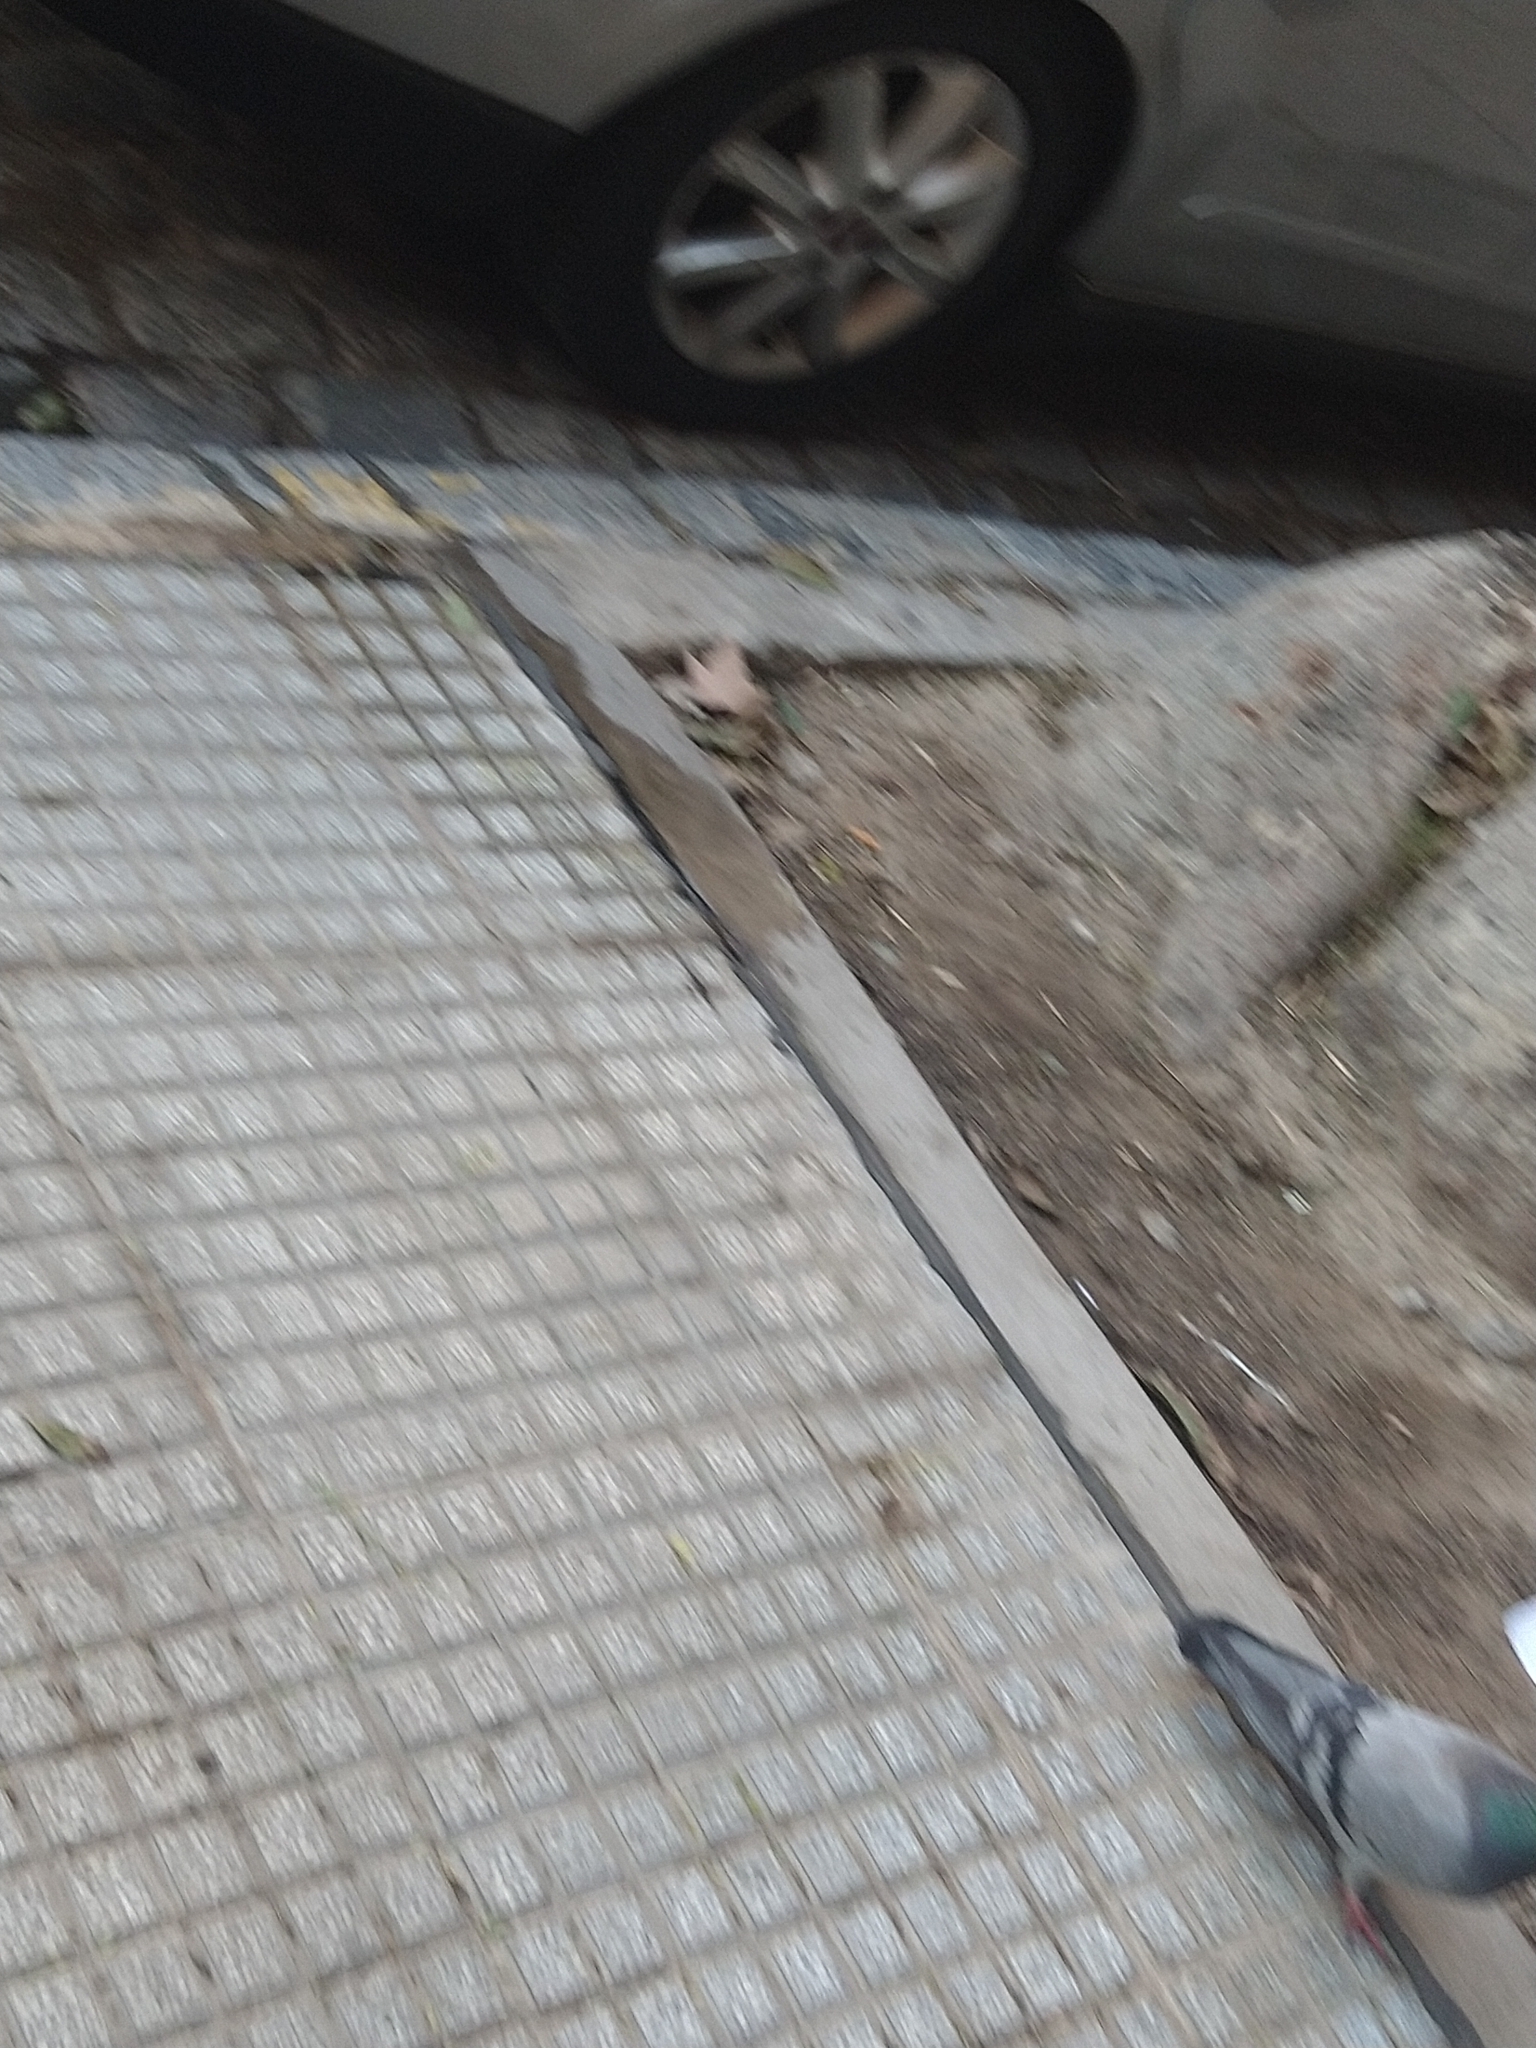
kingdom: Animalia
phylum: Chordata
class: Aves
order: Columbiformes
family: Columbidae
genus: Columba
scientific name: Columba livia
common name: Rock pigeon
